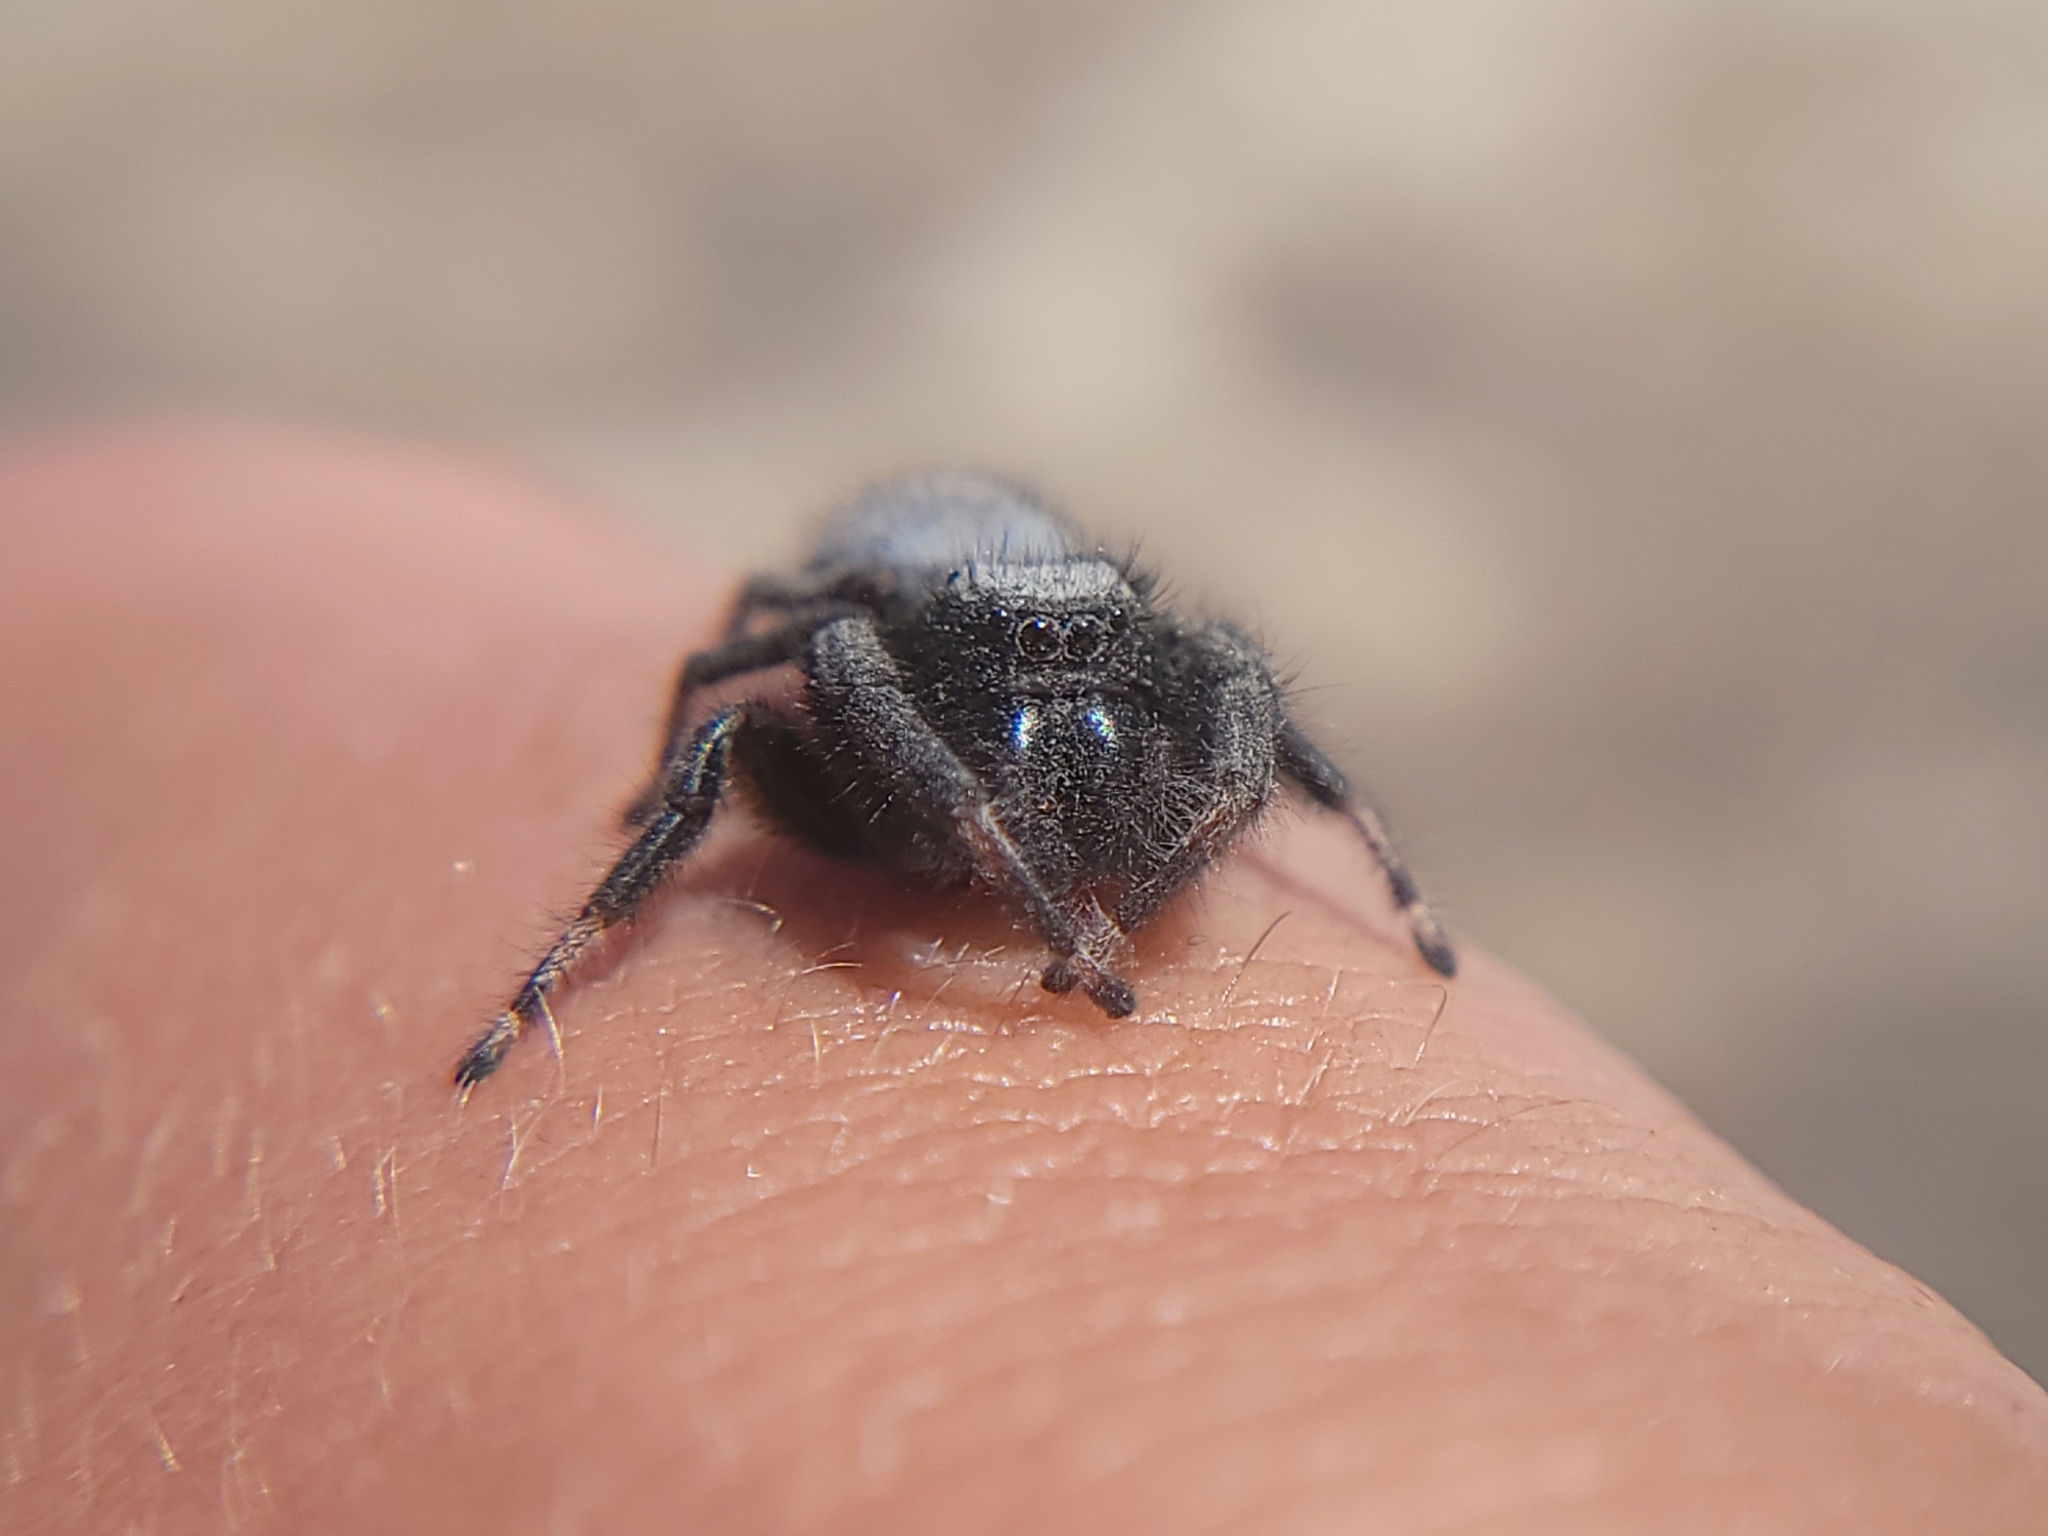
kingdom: Animalia
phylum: Arthropoda
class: Arachnida
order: Araneae
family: Salticidae
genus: Phidippus
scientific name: Phidippus octopunctatus
